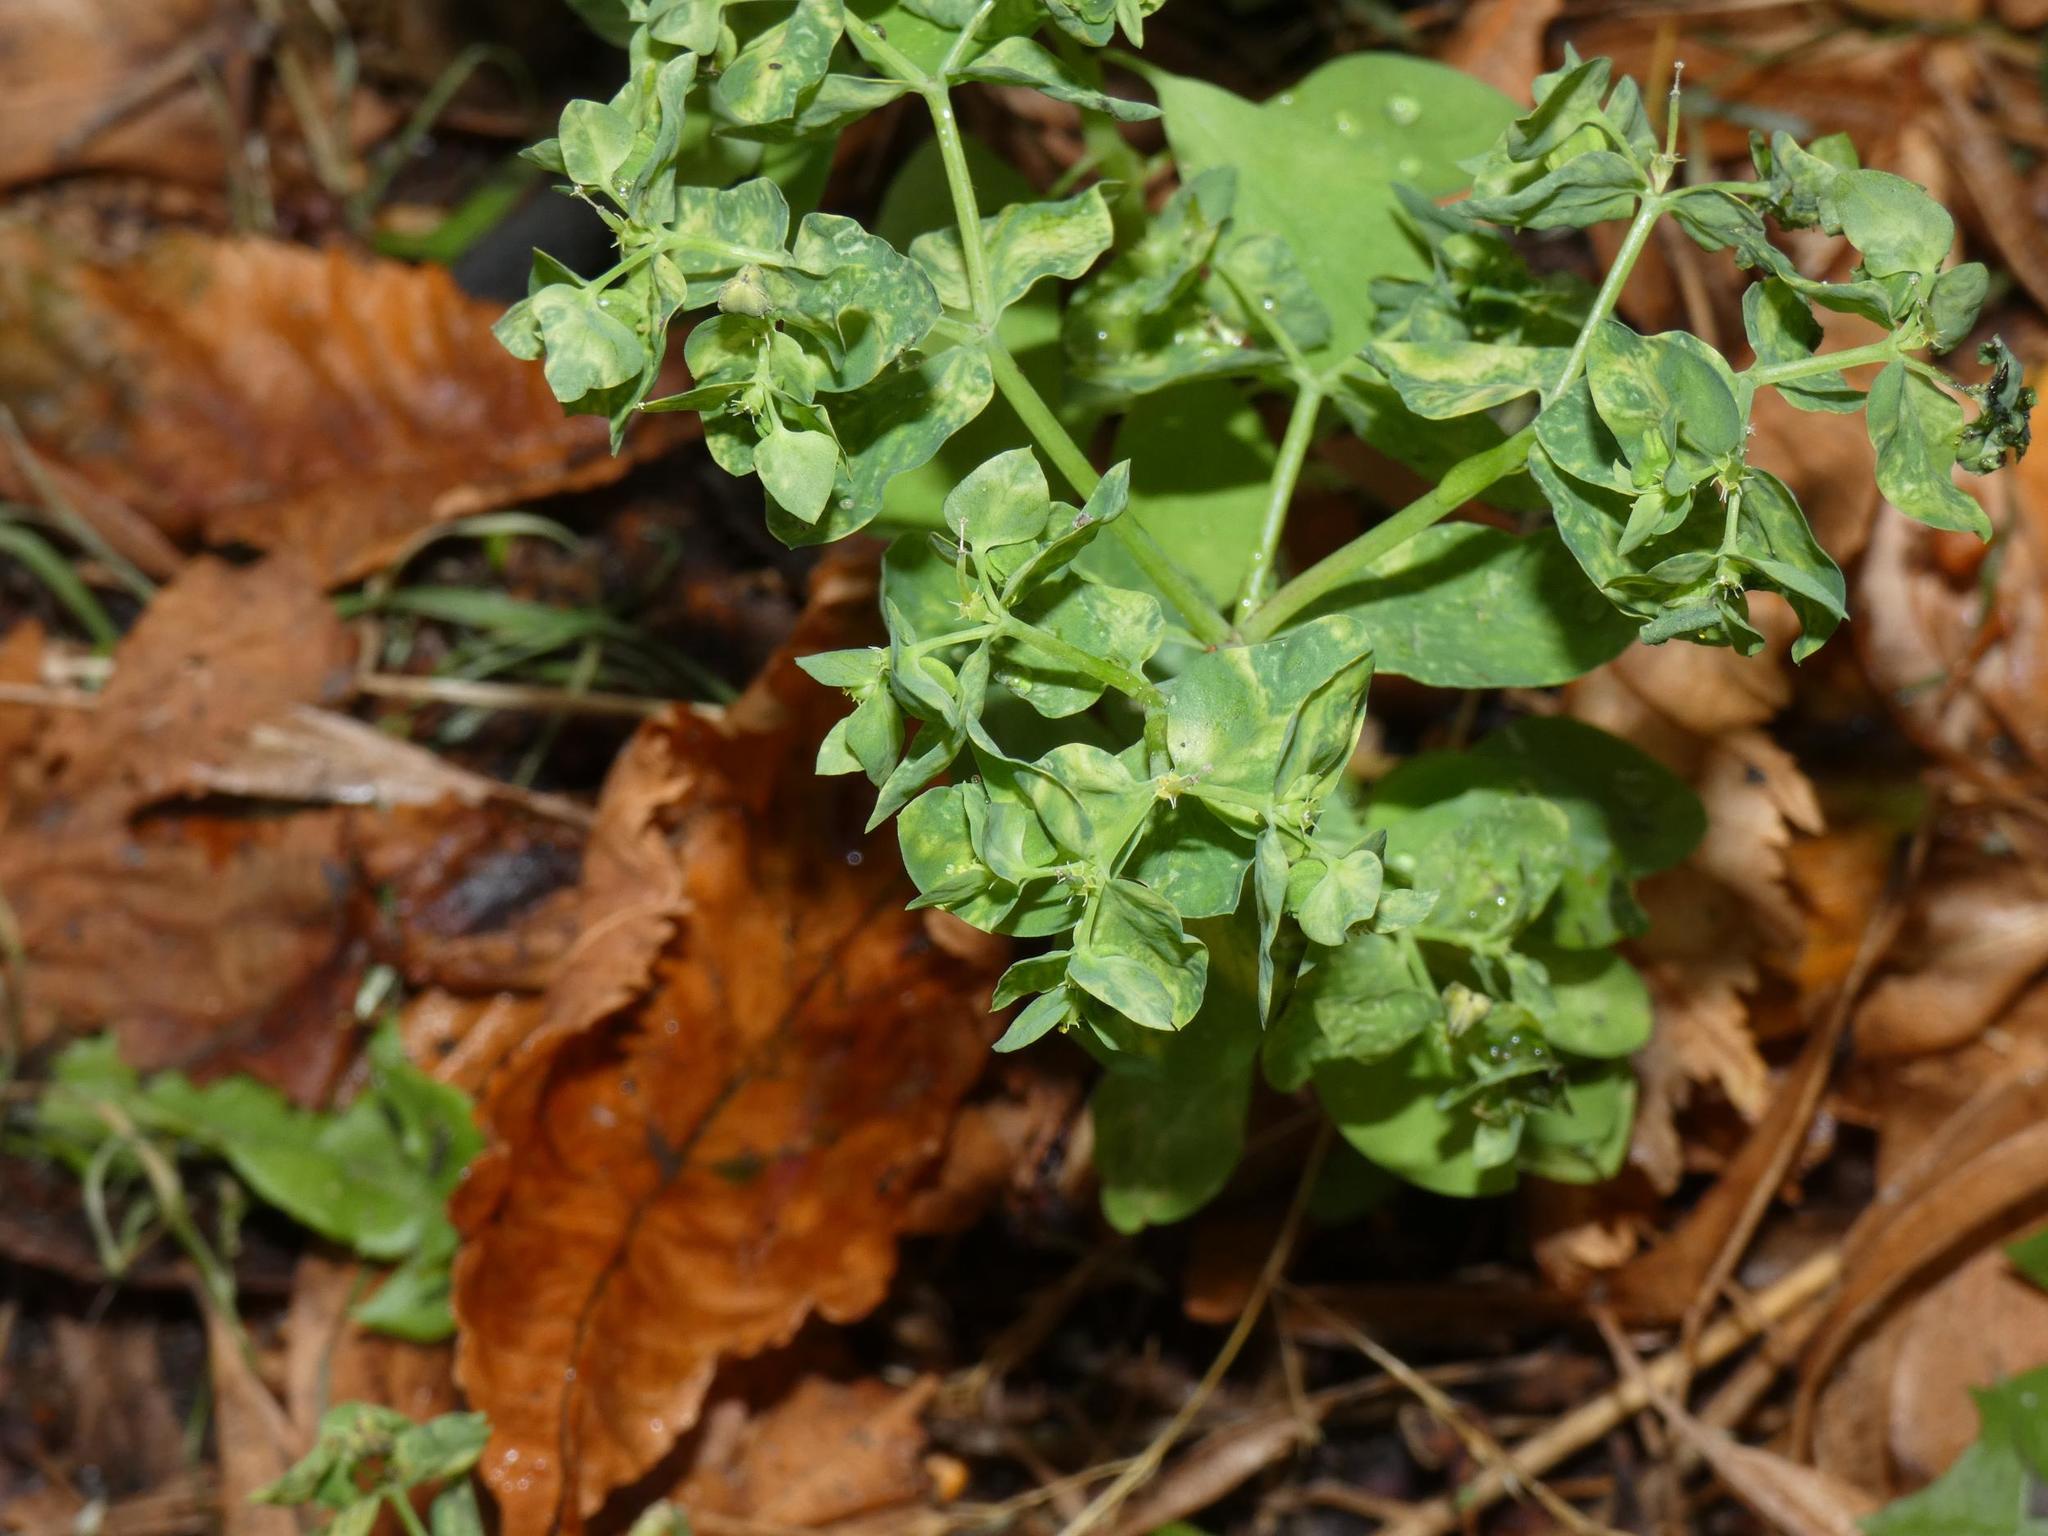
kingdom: Plantae
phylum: Tracheophyta
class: Magnoliopsida
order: Malpighiales
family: Euphorbiaceae
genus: Euphorbia
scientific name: Euphorbia peplus
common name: Petty spurge
